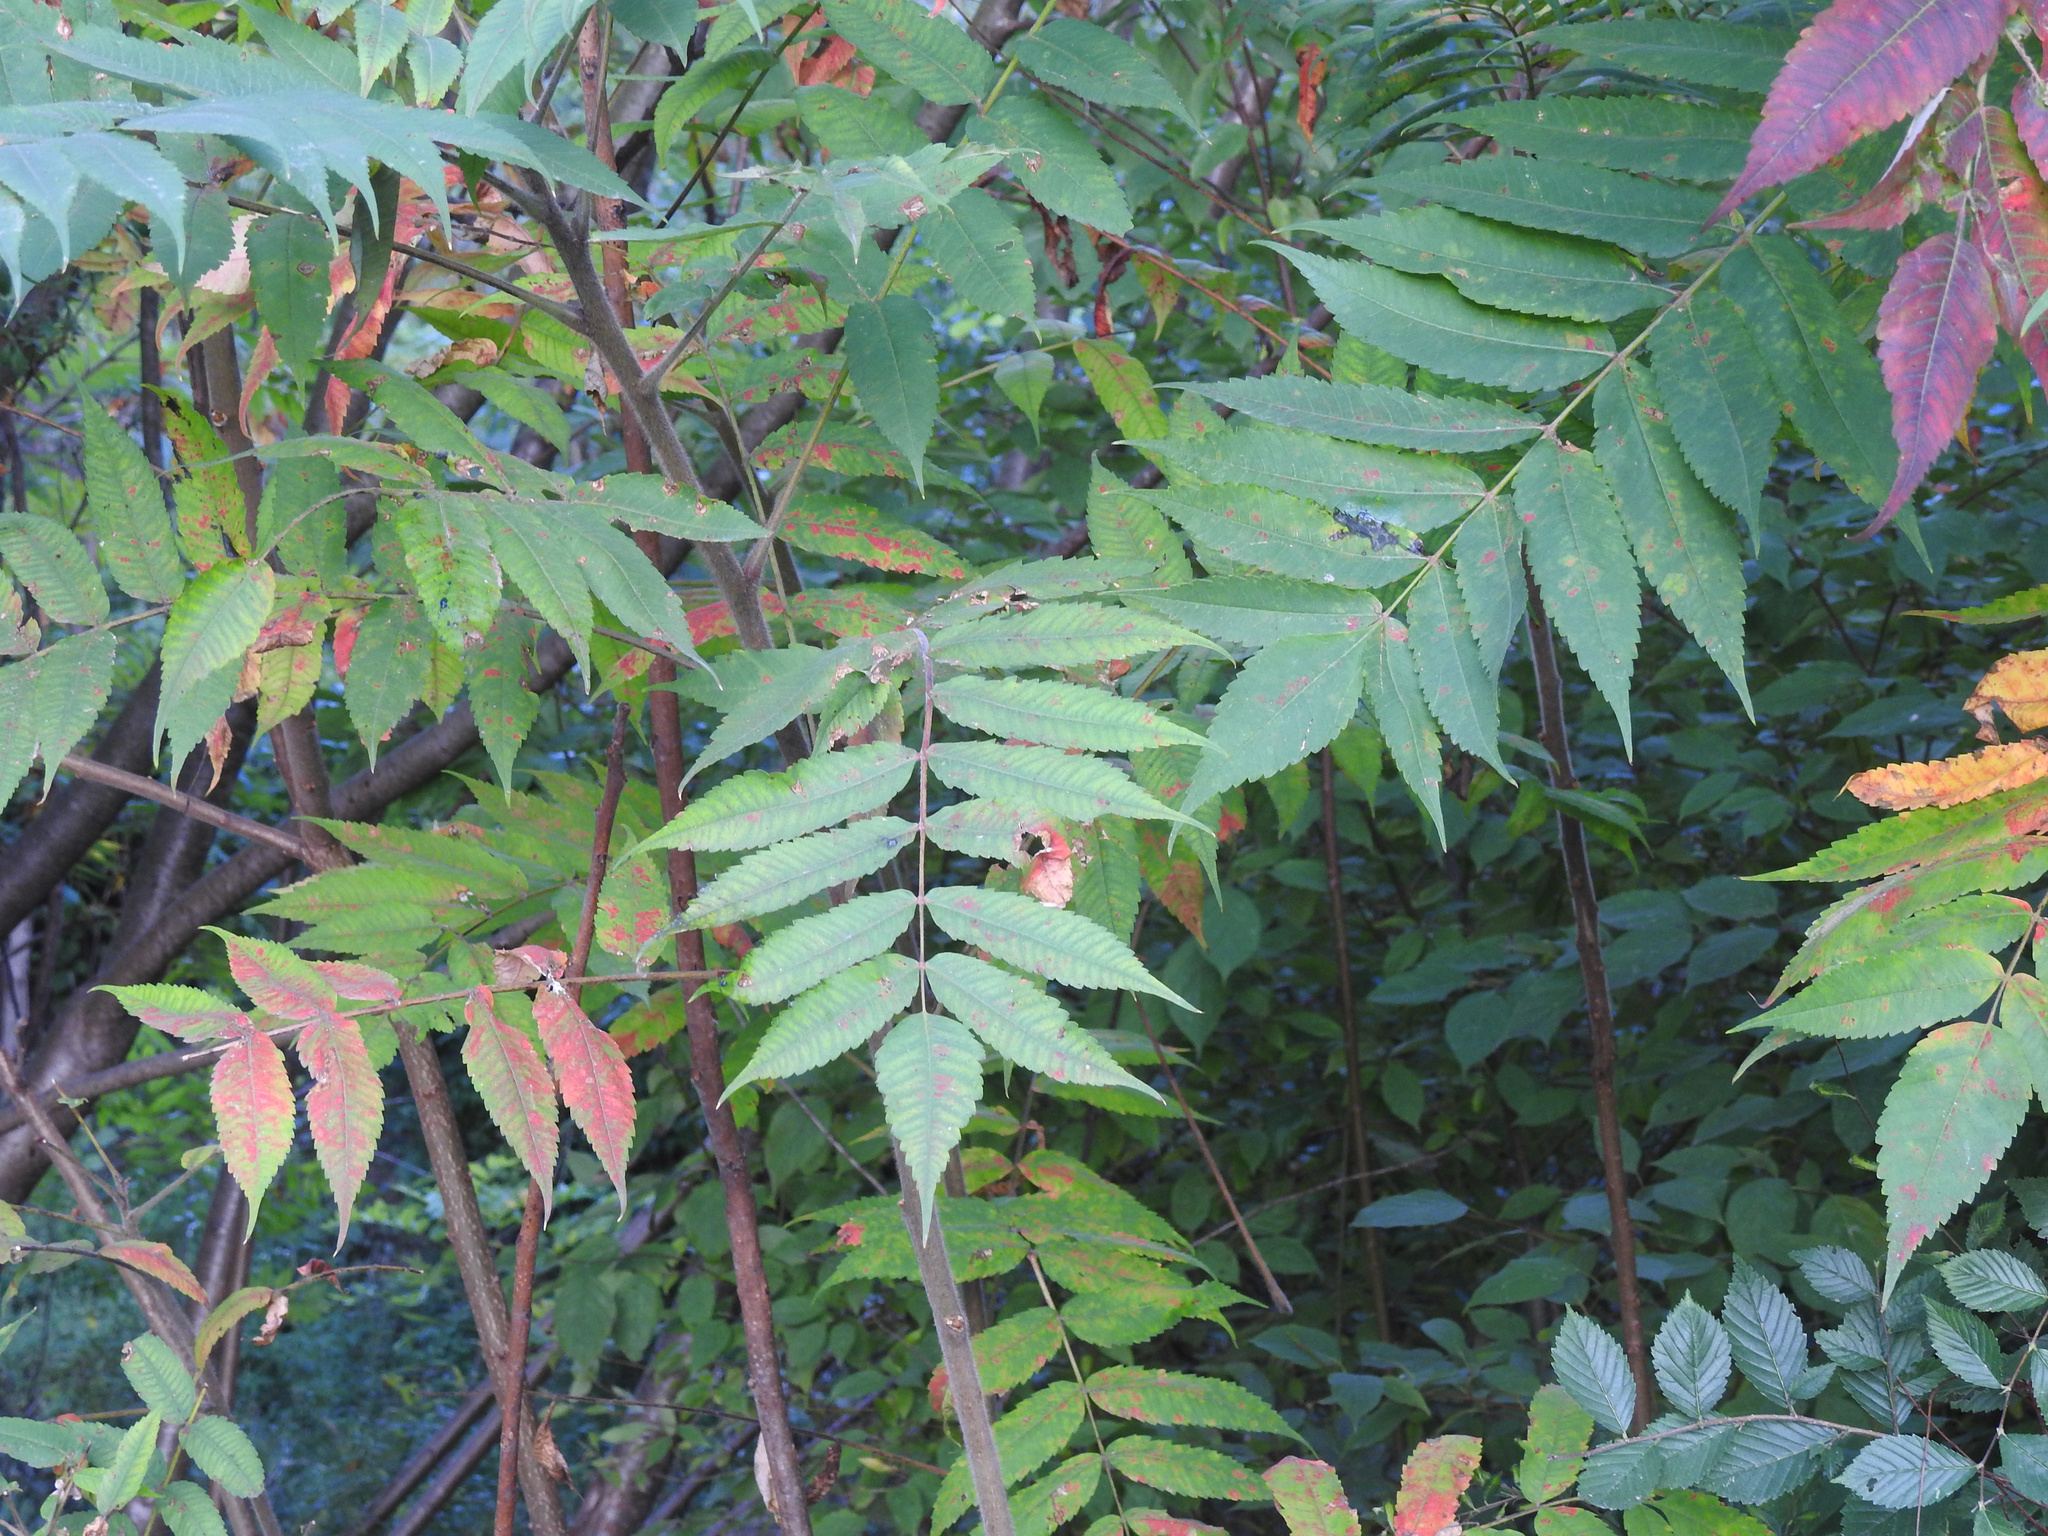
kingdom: Plantae
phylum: Tracheophyta
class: Magnoliopsida
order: Sapindales
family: Anacardiaceae
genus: Rhus
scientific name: Rhus typhina
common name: Staghorn sumac
